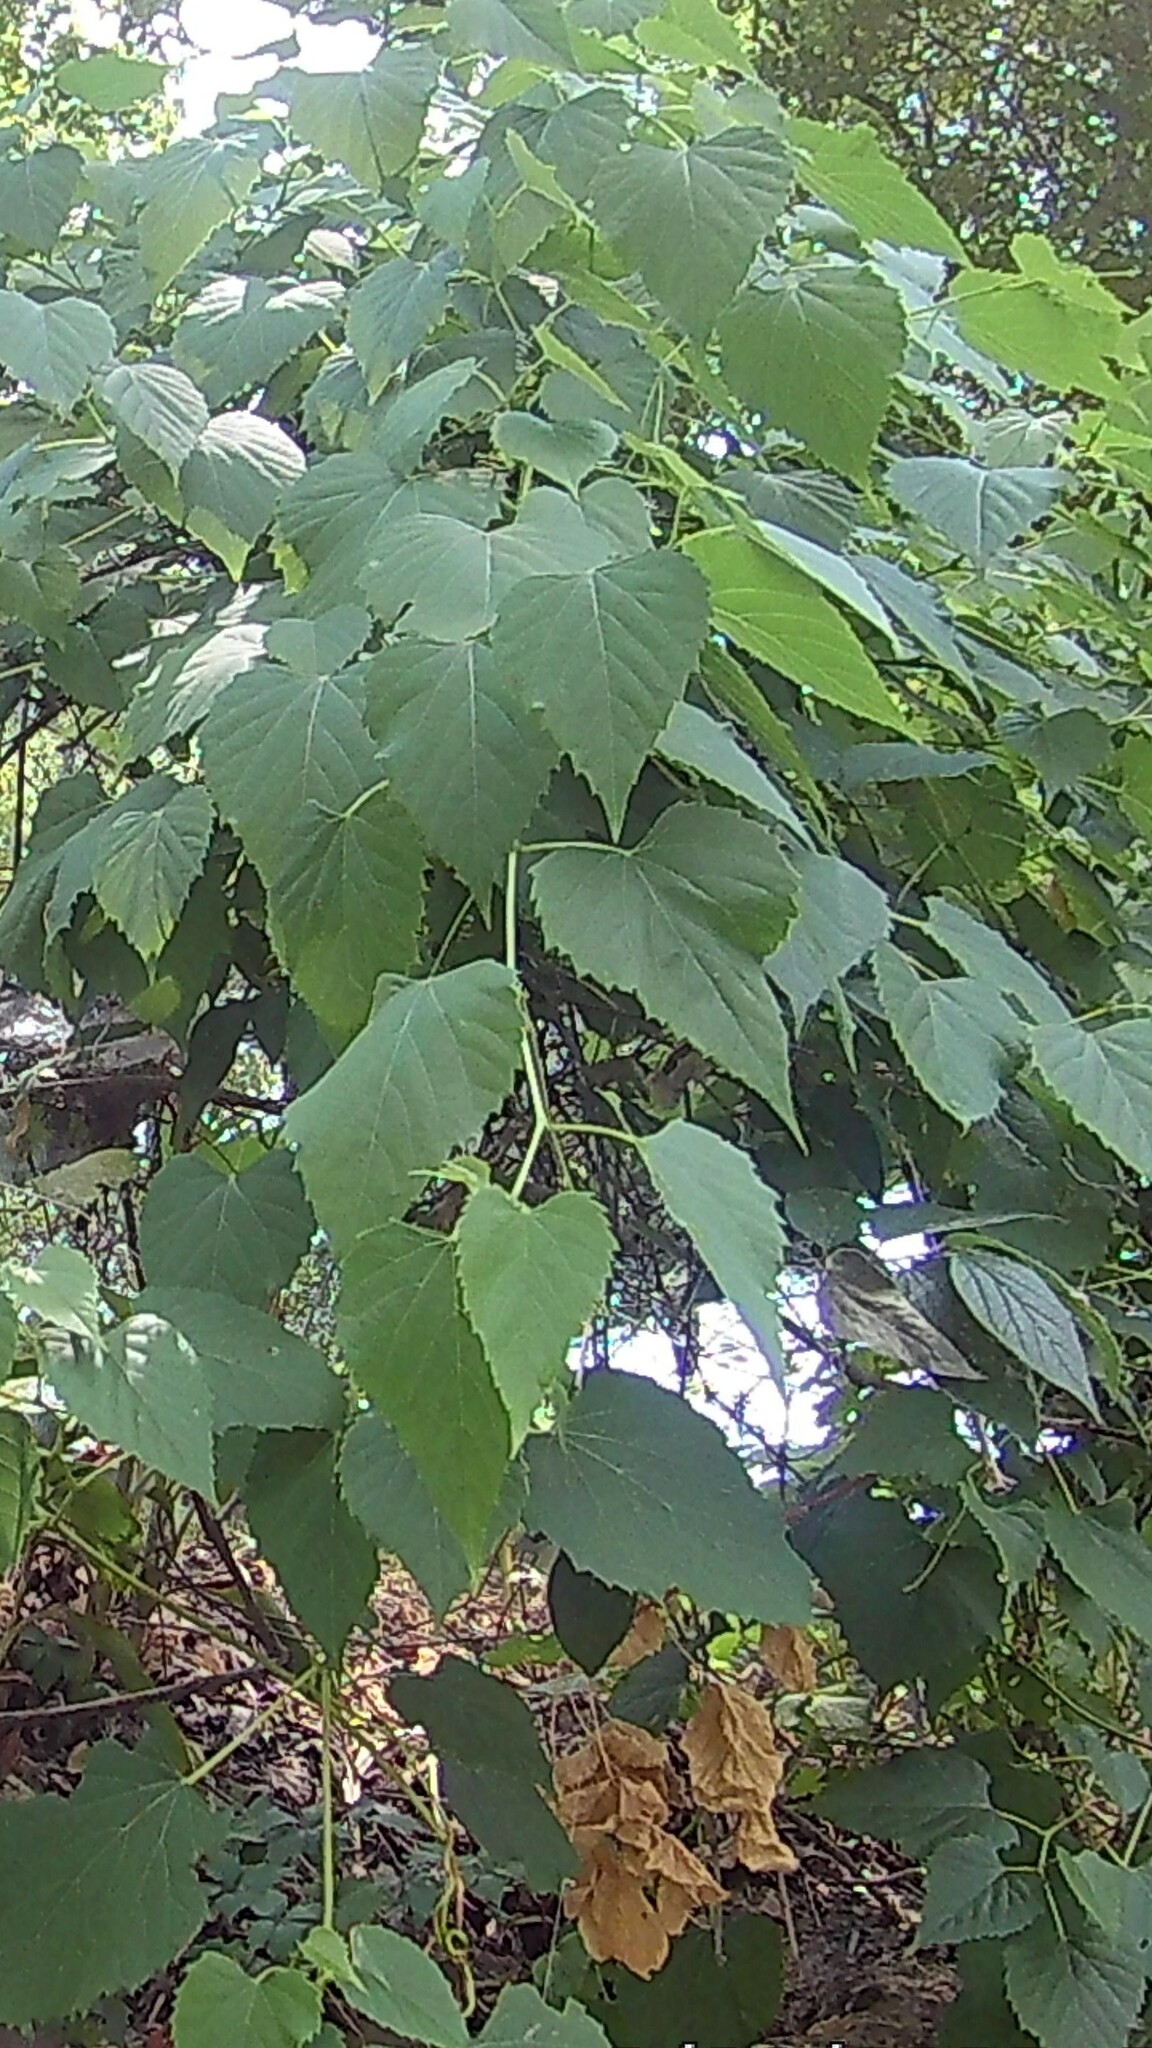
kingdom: Plantae
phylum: Tracheophyta
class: Magnoliopsida
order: Vitales
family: Vitaceae
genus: Ampelopsis
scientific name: Ampelopsis cordata
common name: Heart-leaf ampelopsis
